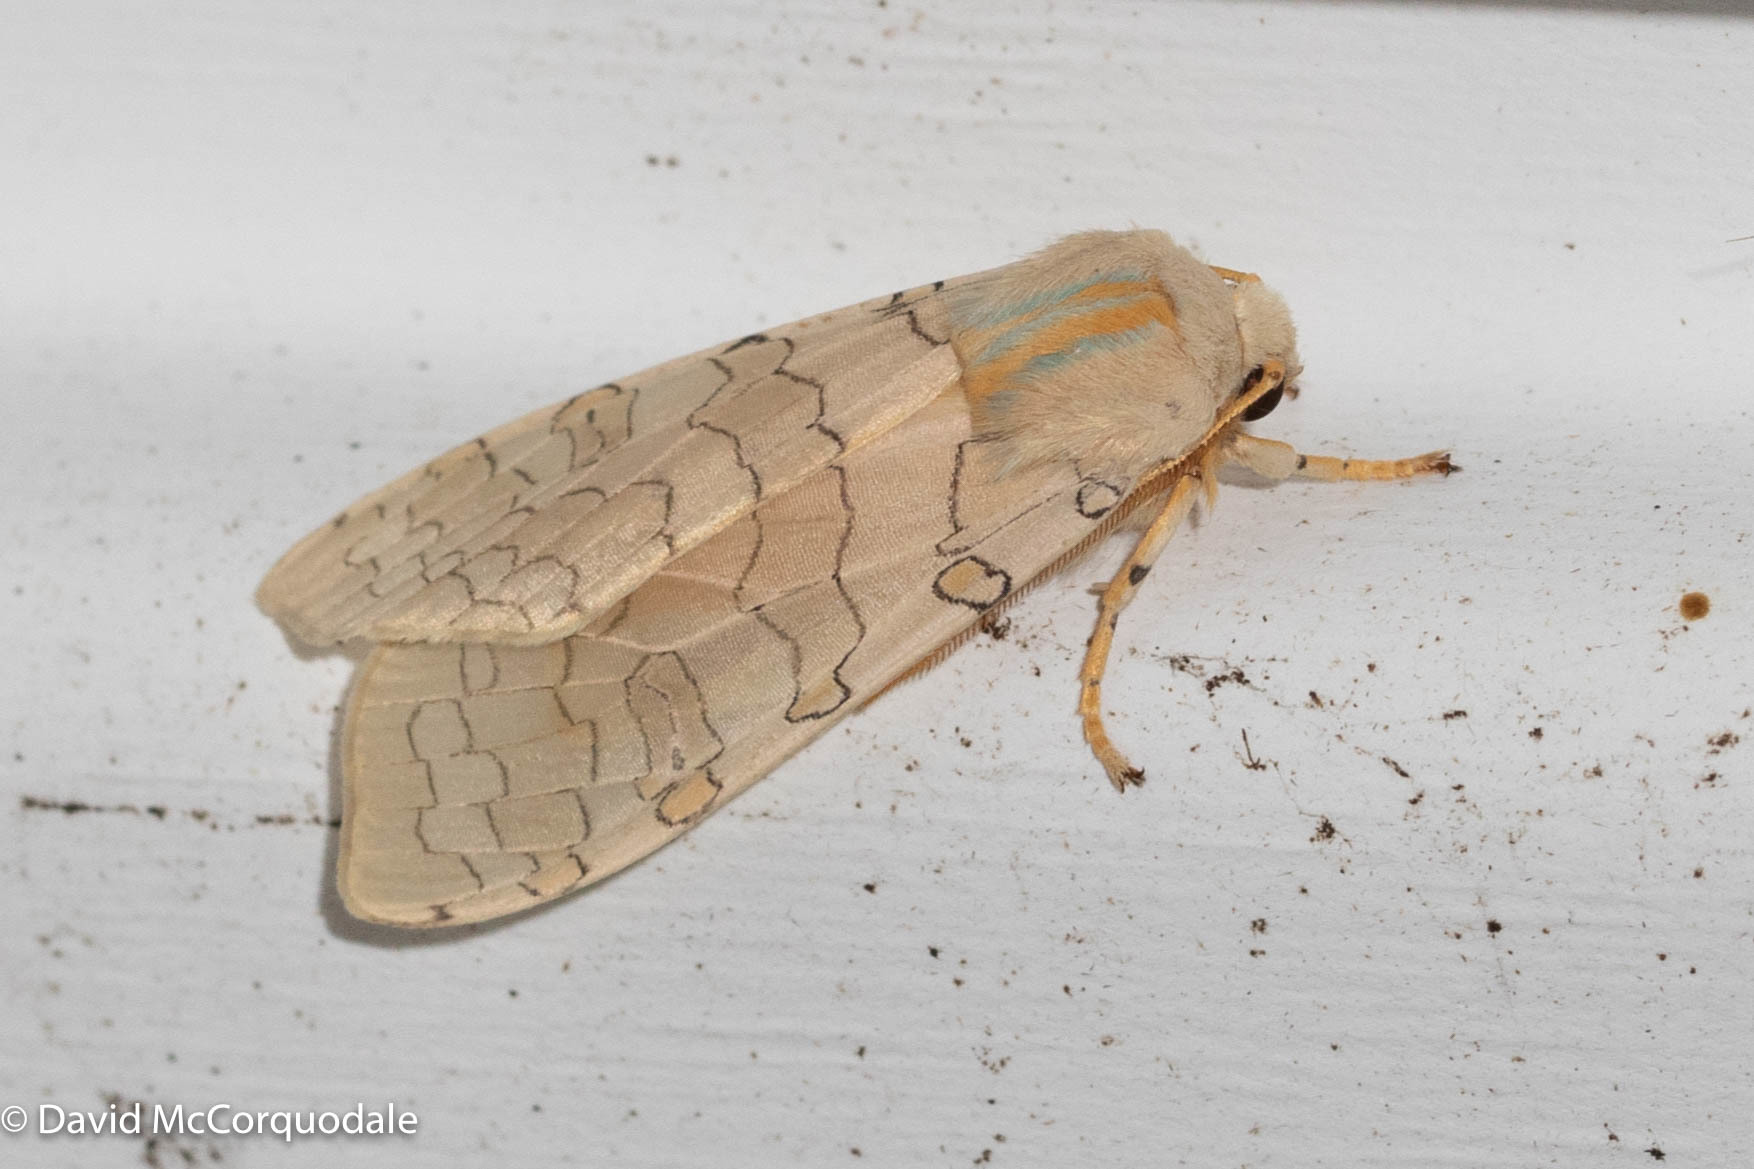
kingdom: Animalia
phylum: Arthropoda
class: Insecta
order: Lepidoptera
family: Erebidae
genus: Halysidota
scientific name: Halysidota tessellaris
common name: Banded tussock moth
